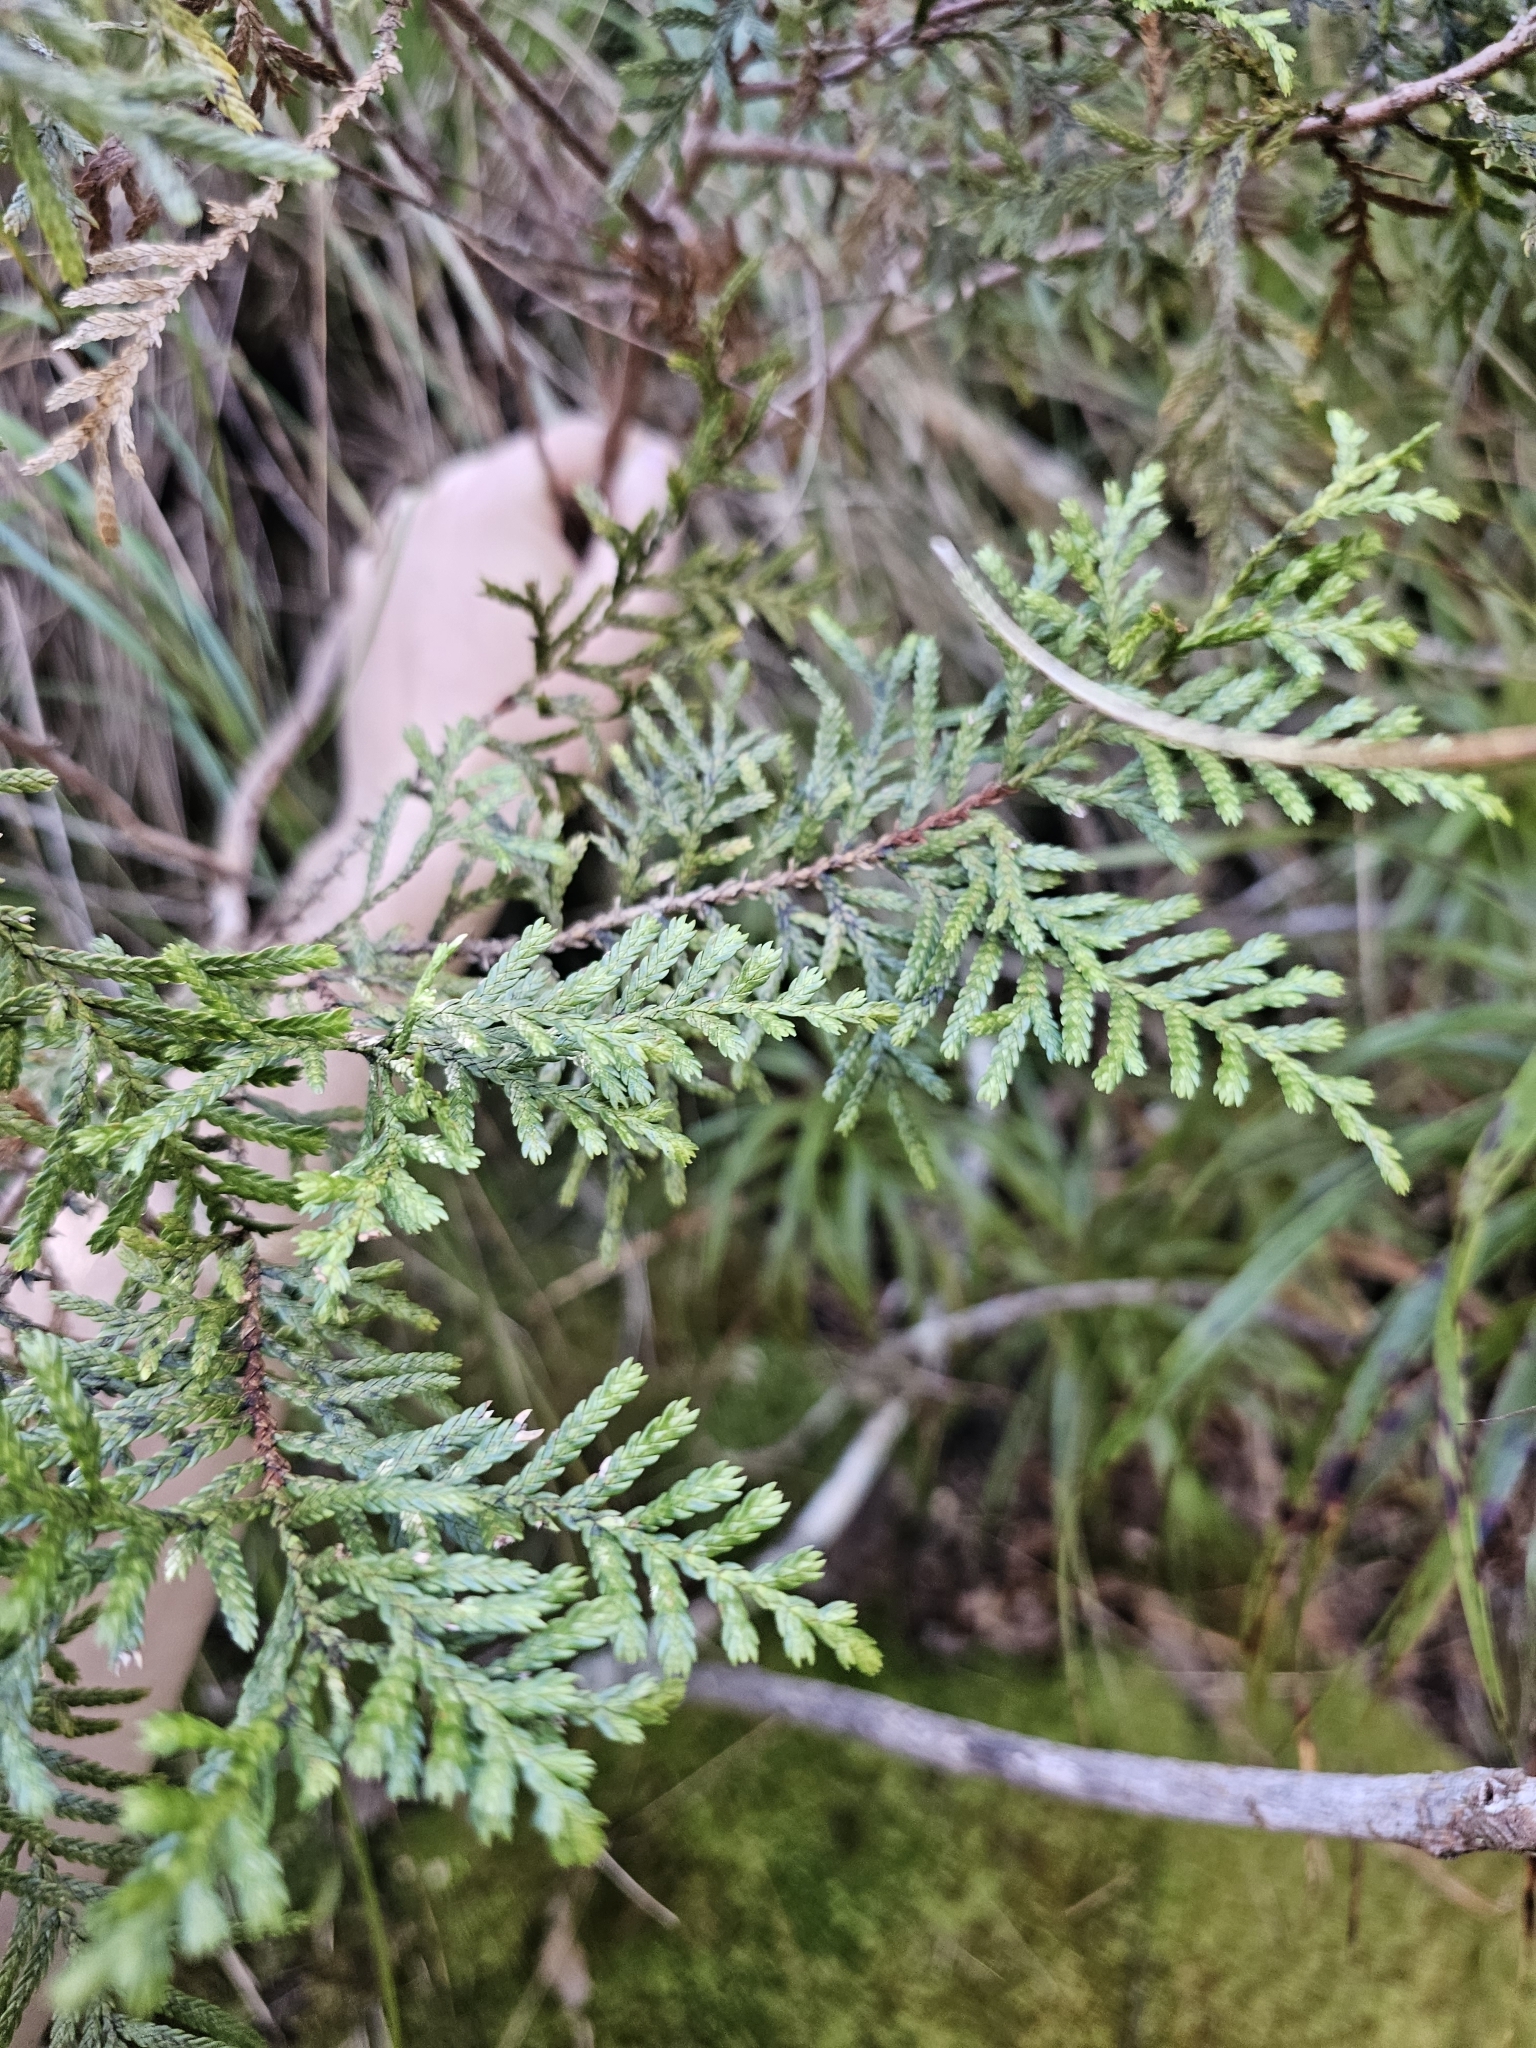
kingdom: Plantae
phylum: Tracheophyta
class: Pinopsida
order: Pinales
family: Cupressaceae
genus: Libocedrus
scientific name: Libocedrus bidwillii
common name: Cedar
